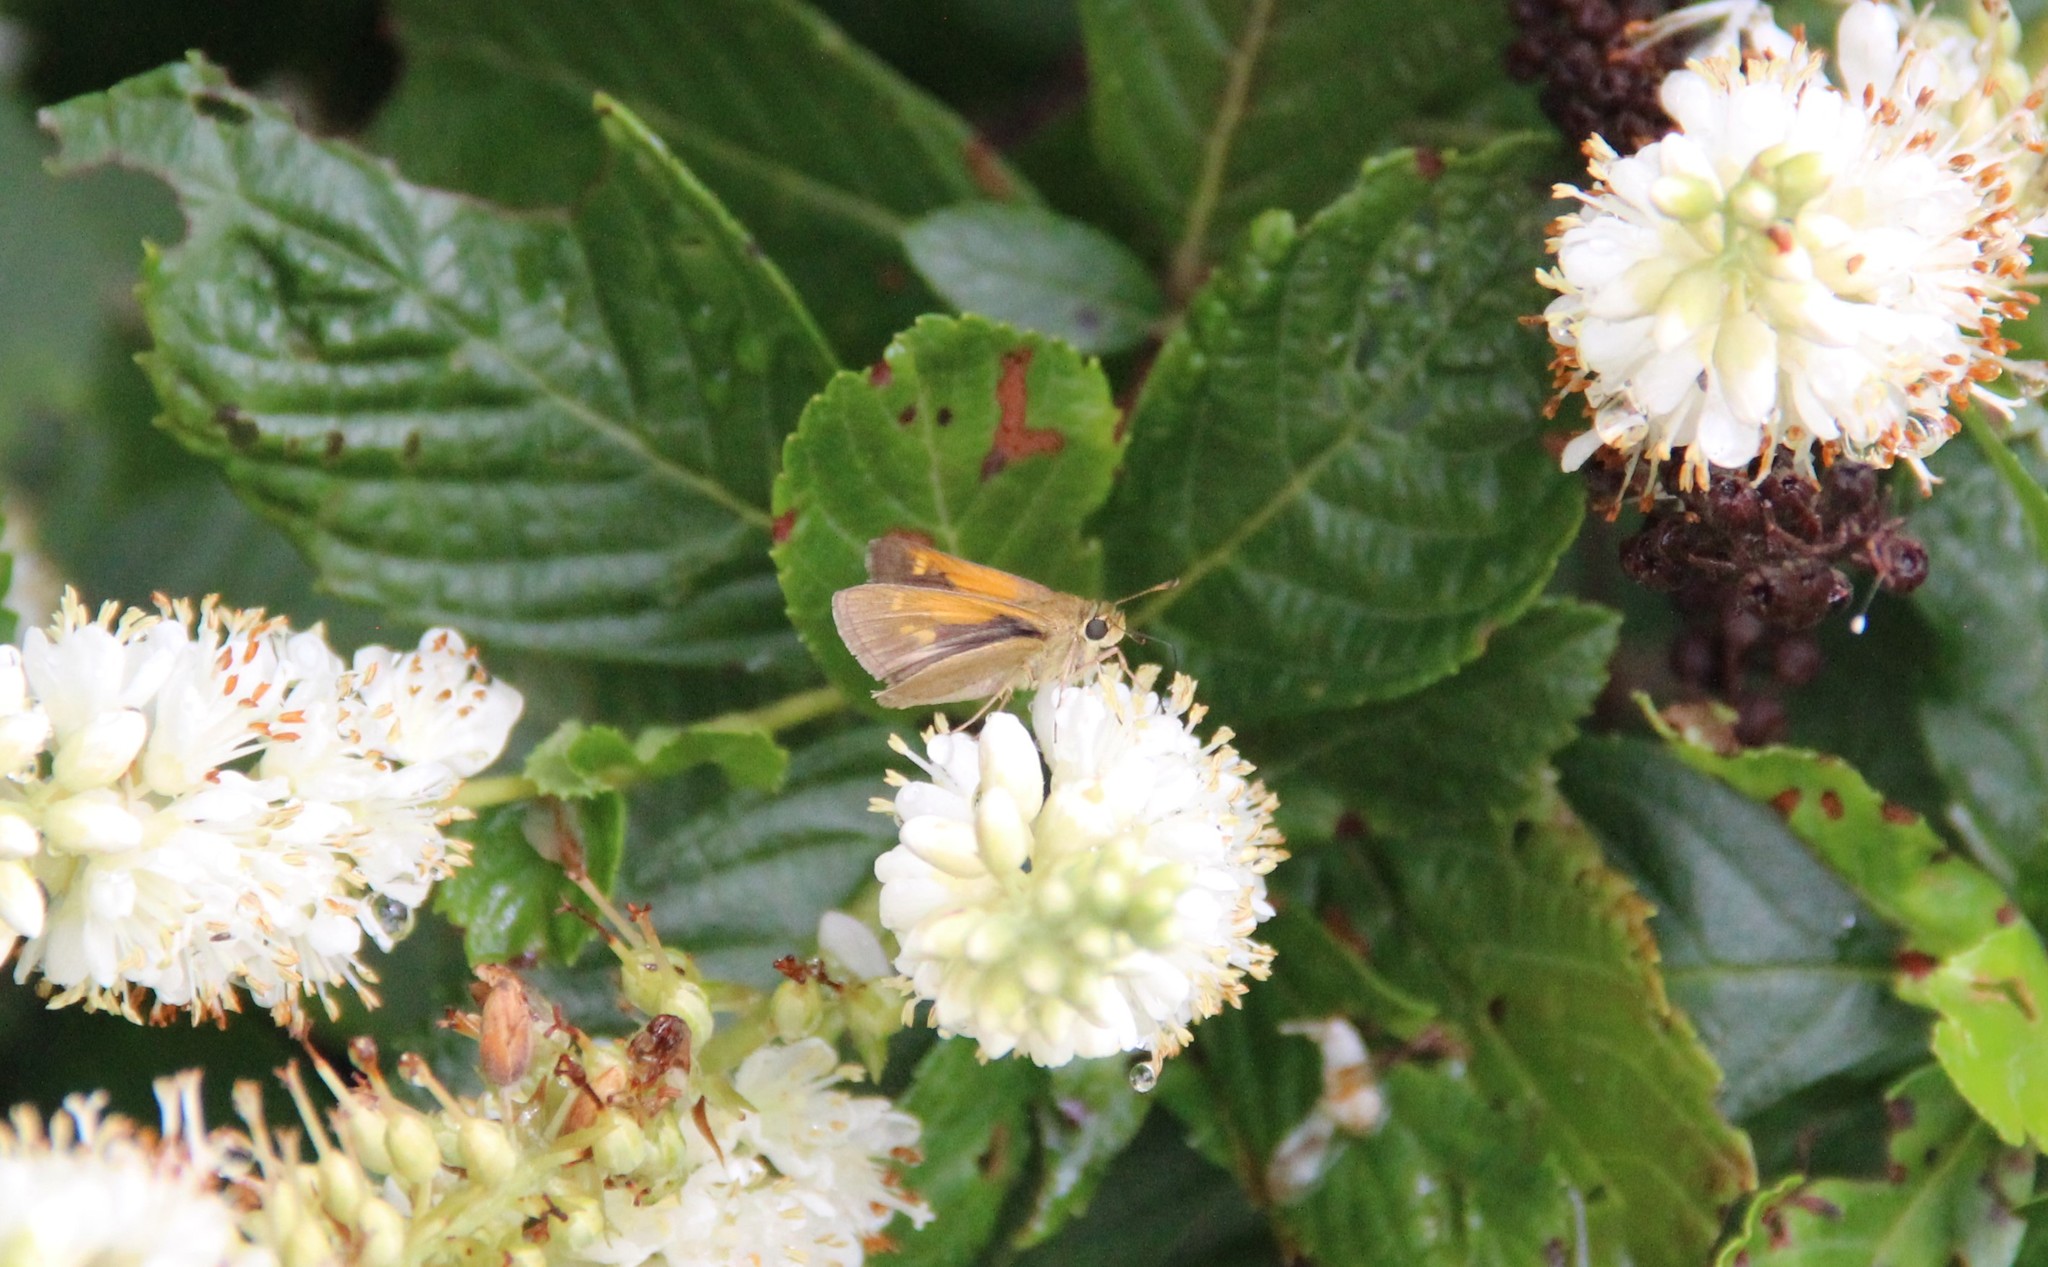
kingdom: Animalia
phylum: Arthropoda
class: Insecta
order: Lepidoptera
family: Hesperiidae
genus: Polites
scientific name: Polites themistocles
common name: Tawny-edged skipper
